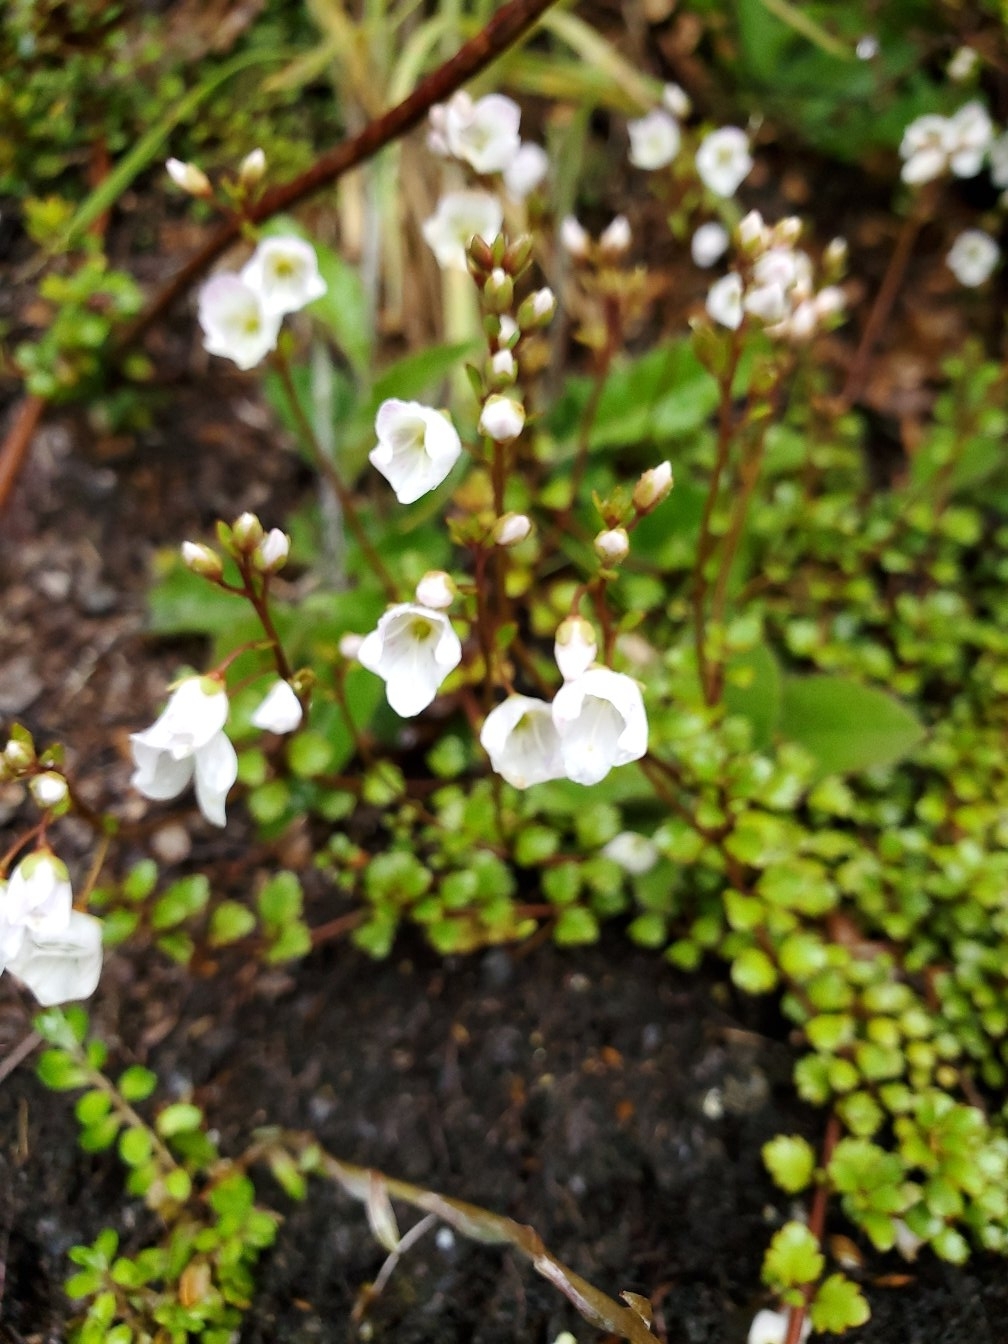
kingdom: Plantae
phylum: Tracheophyta
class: Magnoliopsida
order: Lamiales
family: Plantaginaceae
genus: Veronica
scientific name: Veronica lyallii
